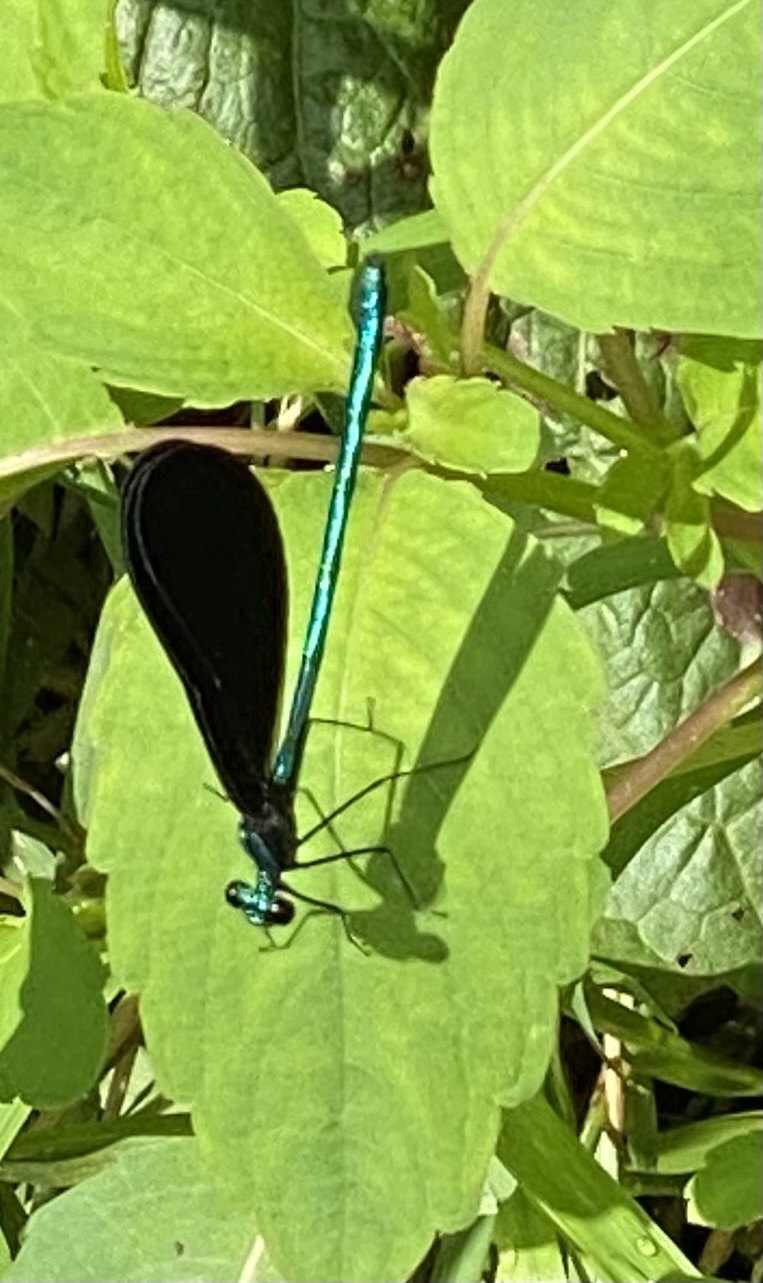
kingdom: Animalia
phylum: Arthropoda
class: Insecta
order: Odonata
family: Calopterygidae
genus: Calopteryx
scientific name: Calopteryx maculata
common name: Ebony jewelwing
